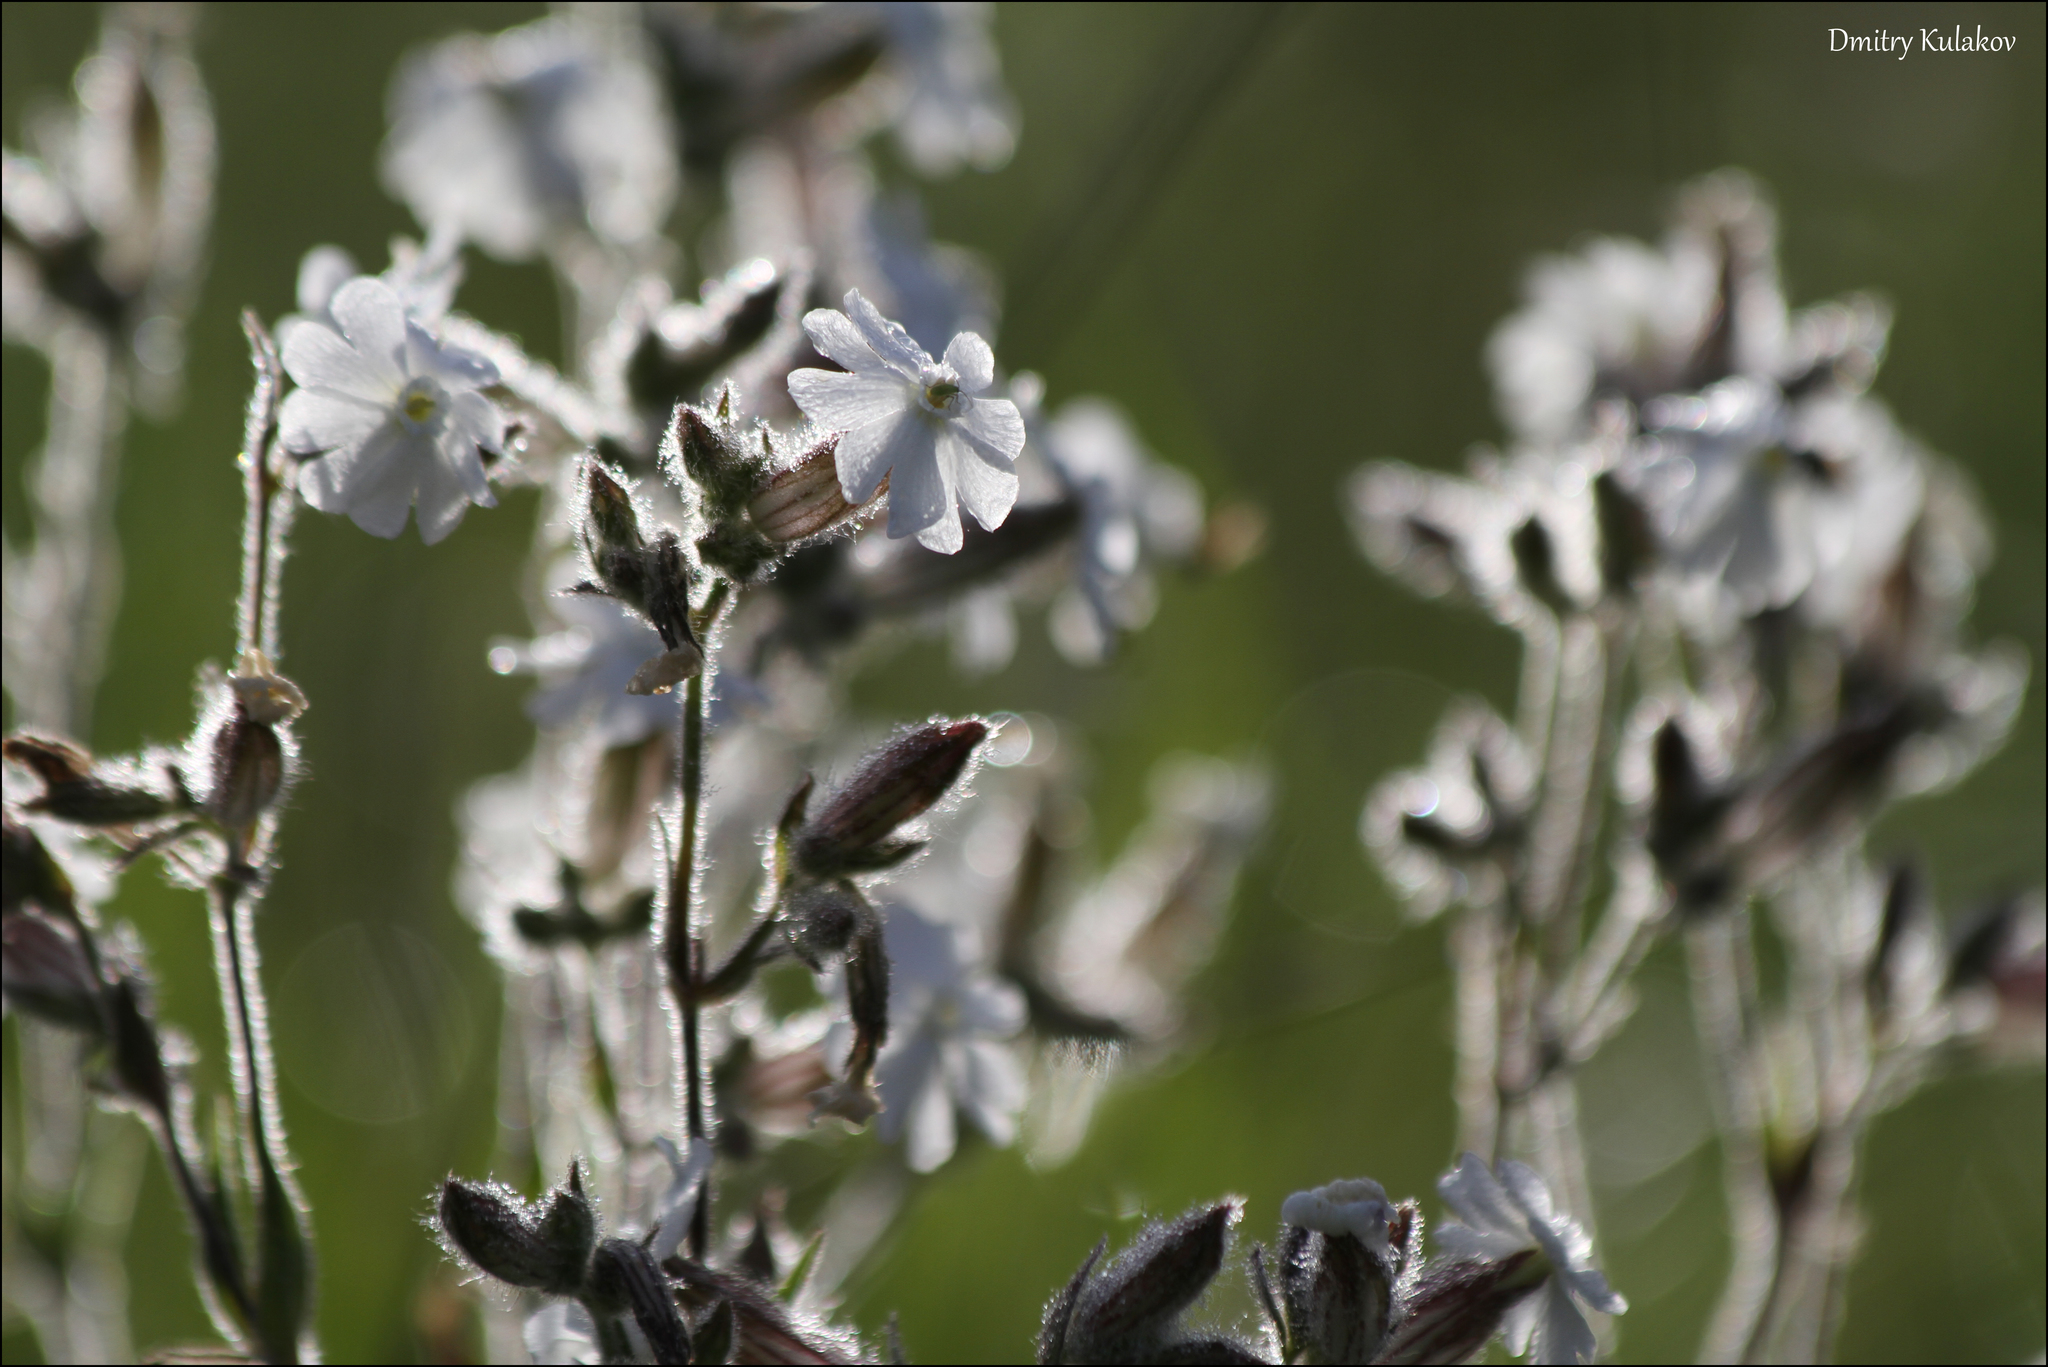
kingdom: Plantae
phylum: Tracheophyta
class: Magnoliopsida
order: Caryophyllales
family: Caryophyllaceae
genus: Silene
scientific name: Silene latifolia
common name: White campion
